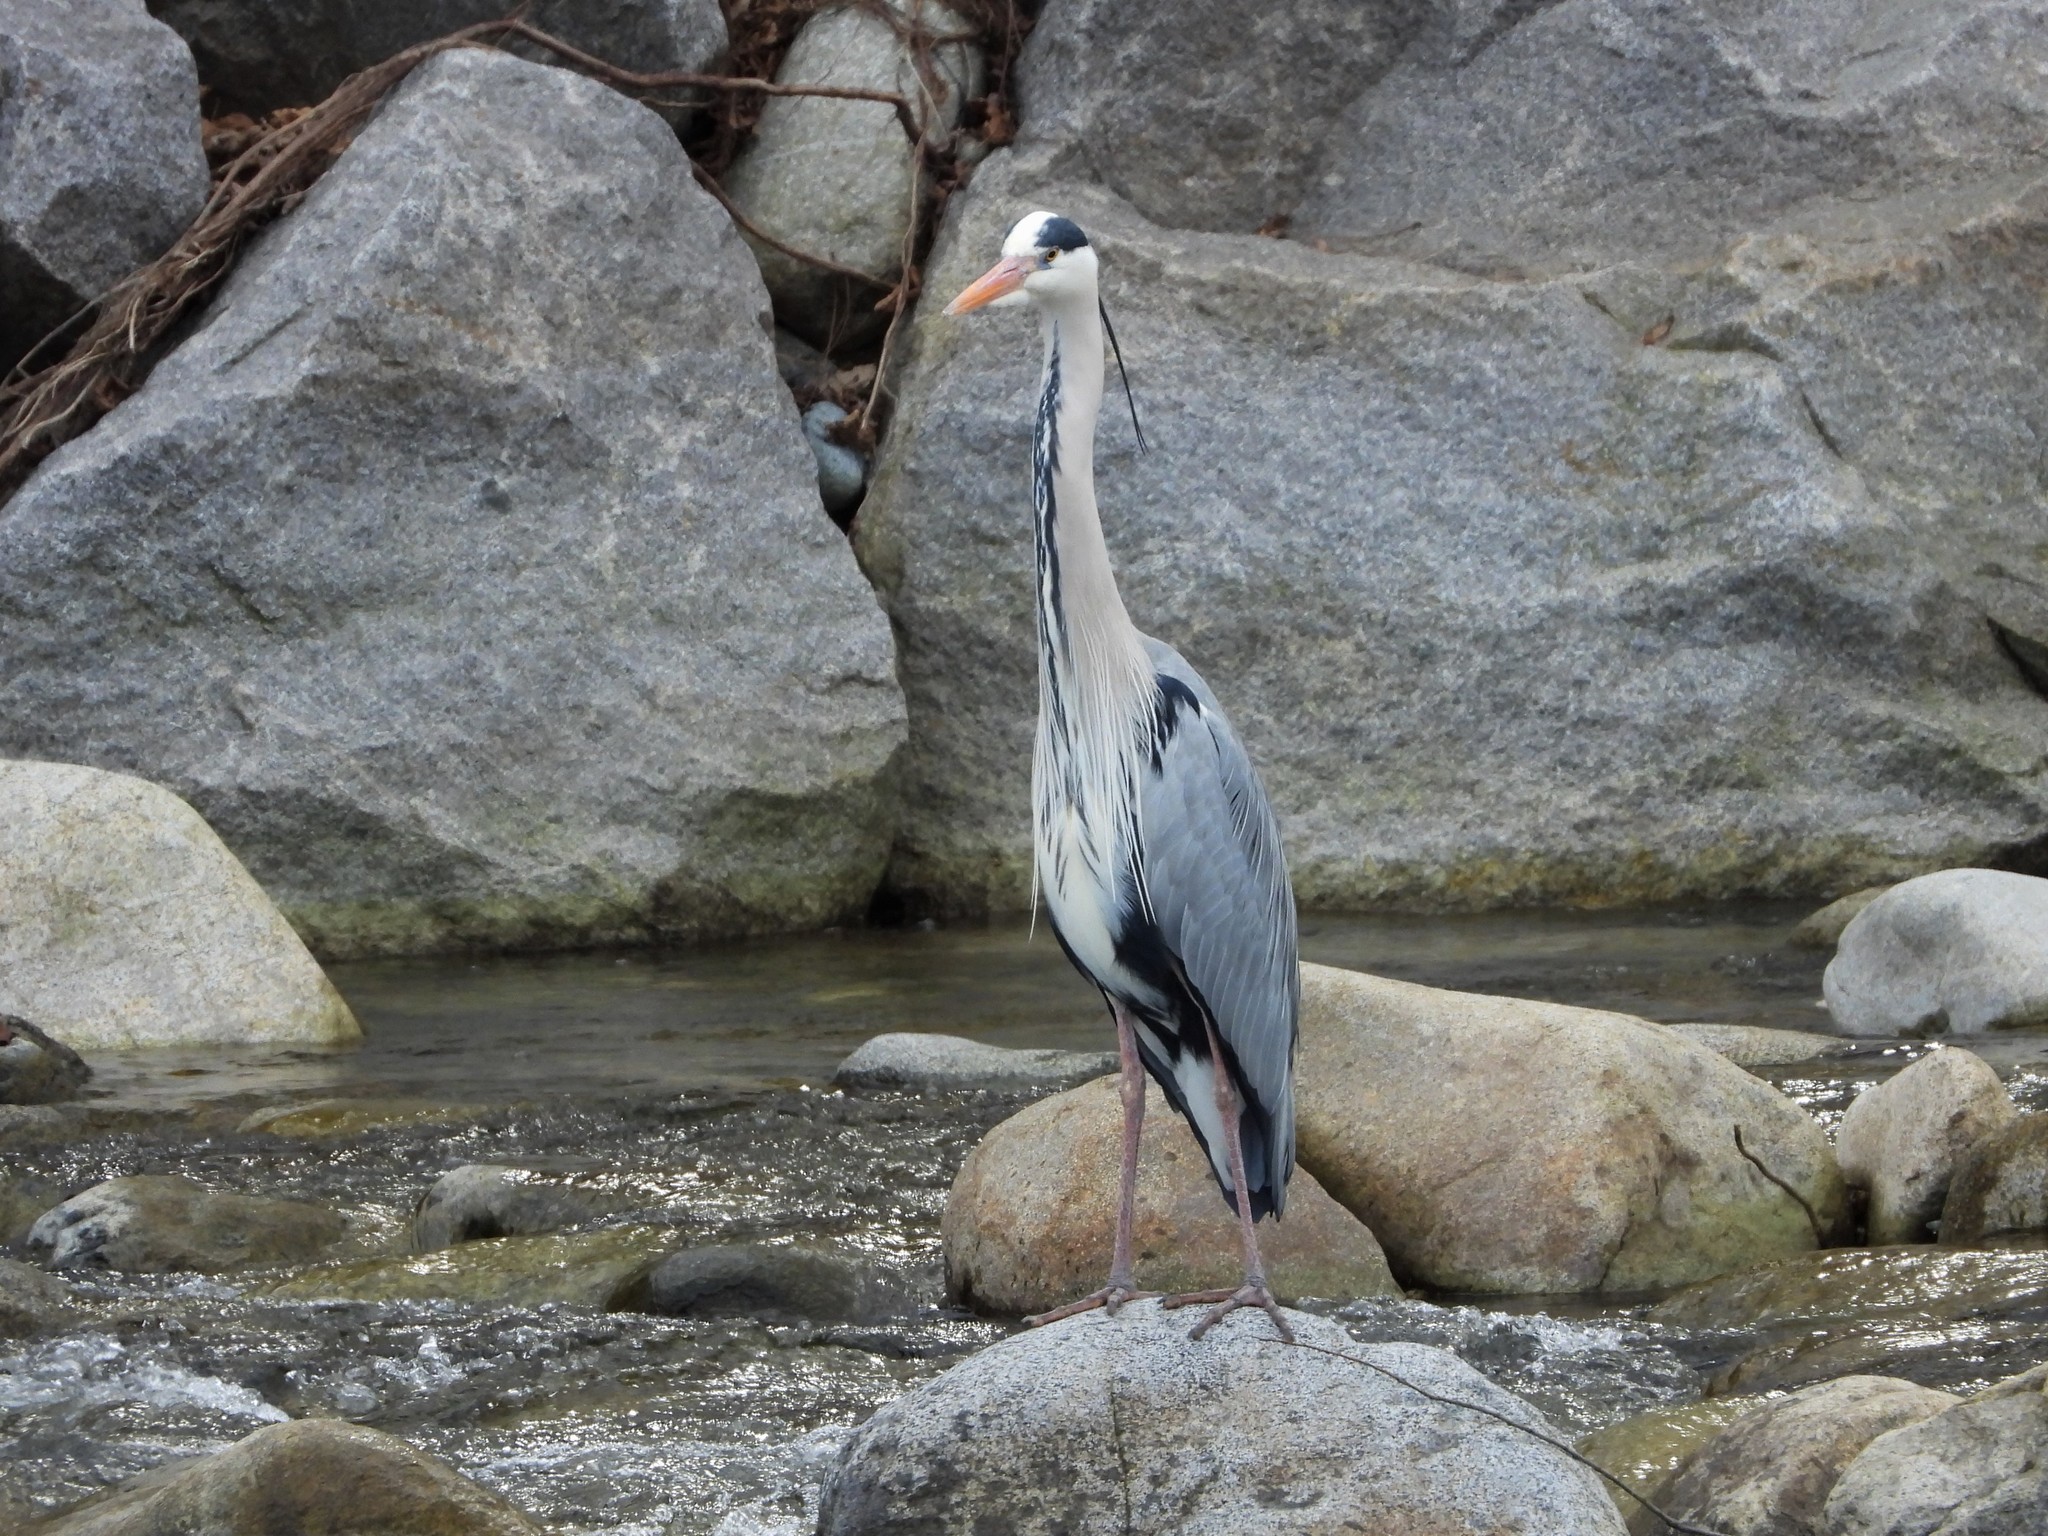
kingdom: Animalia
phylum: Chordata
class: Aves
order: Pelecaniformes
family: Ardeidae
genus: Ardea
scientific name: Ardea cinerea
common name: Grey heron
